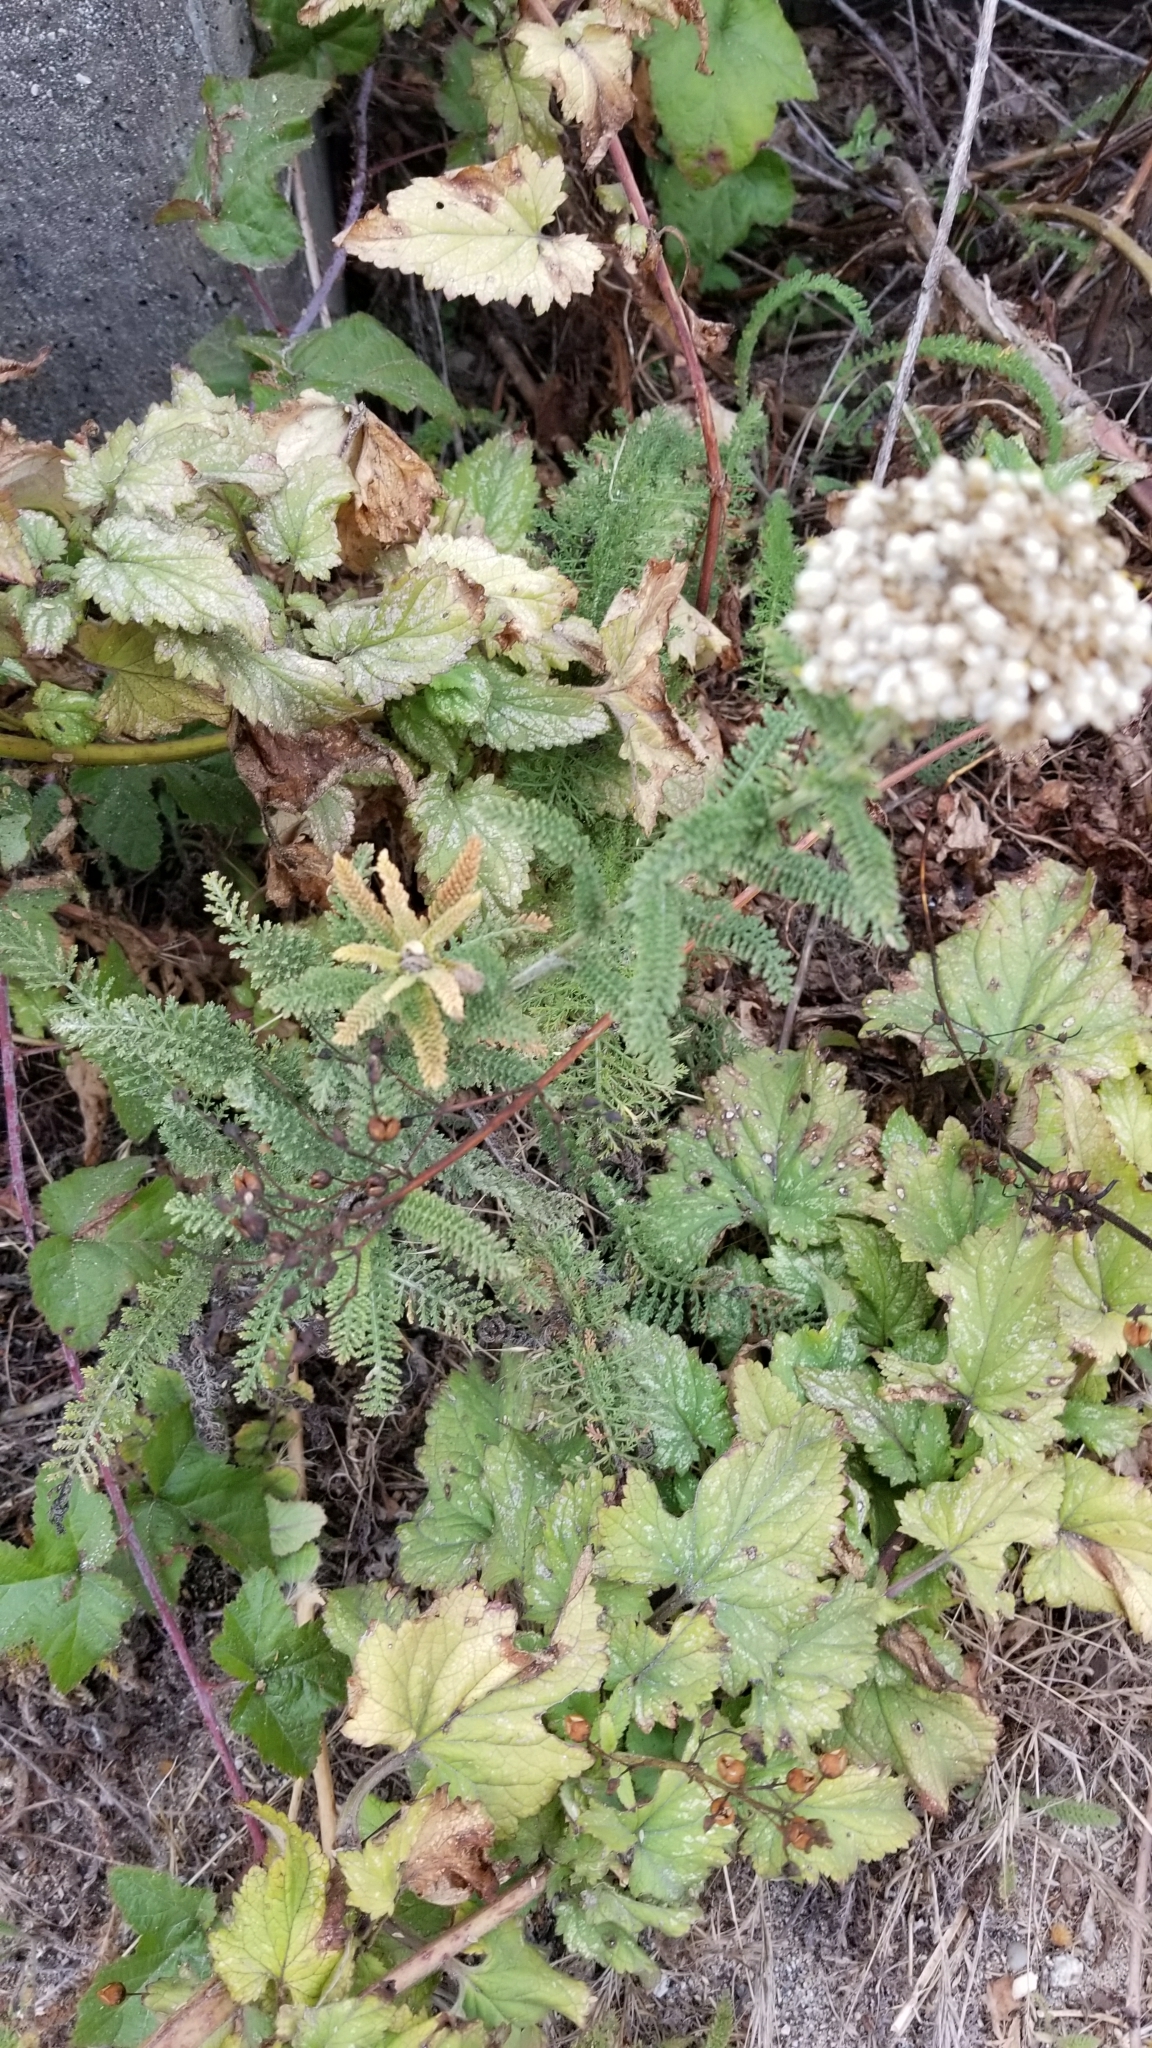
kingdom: Plantae
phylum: Tracheophyta
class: Magnoliopsida
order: Asterales
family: Asteraceae
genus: Achillea
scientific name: Achillea millefolium
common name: Yarrow
